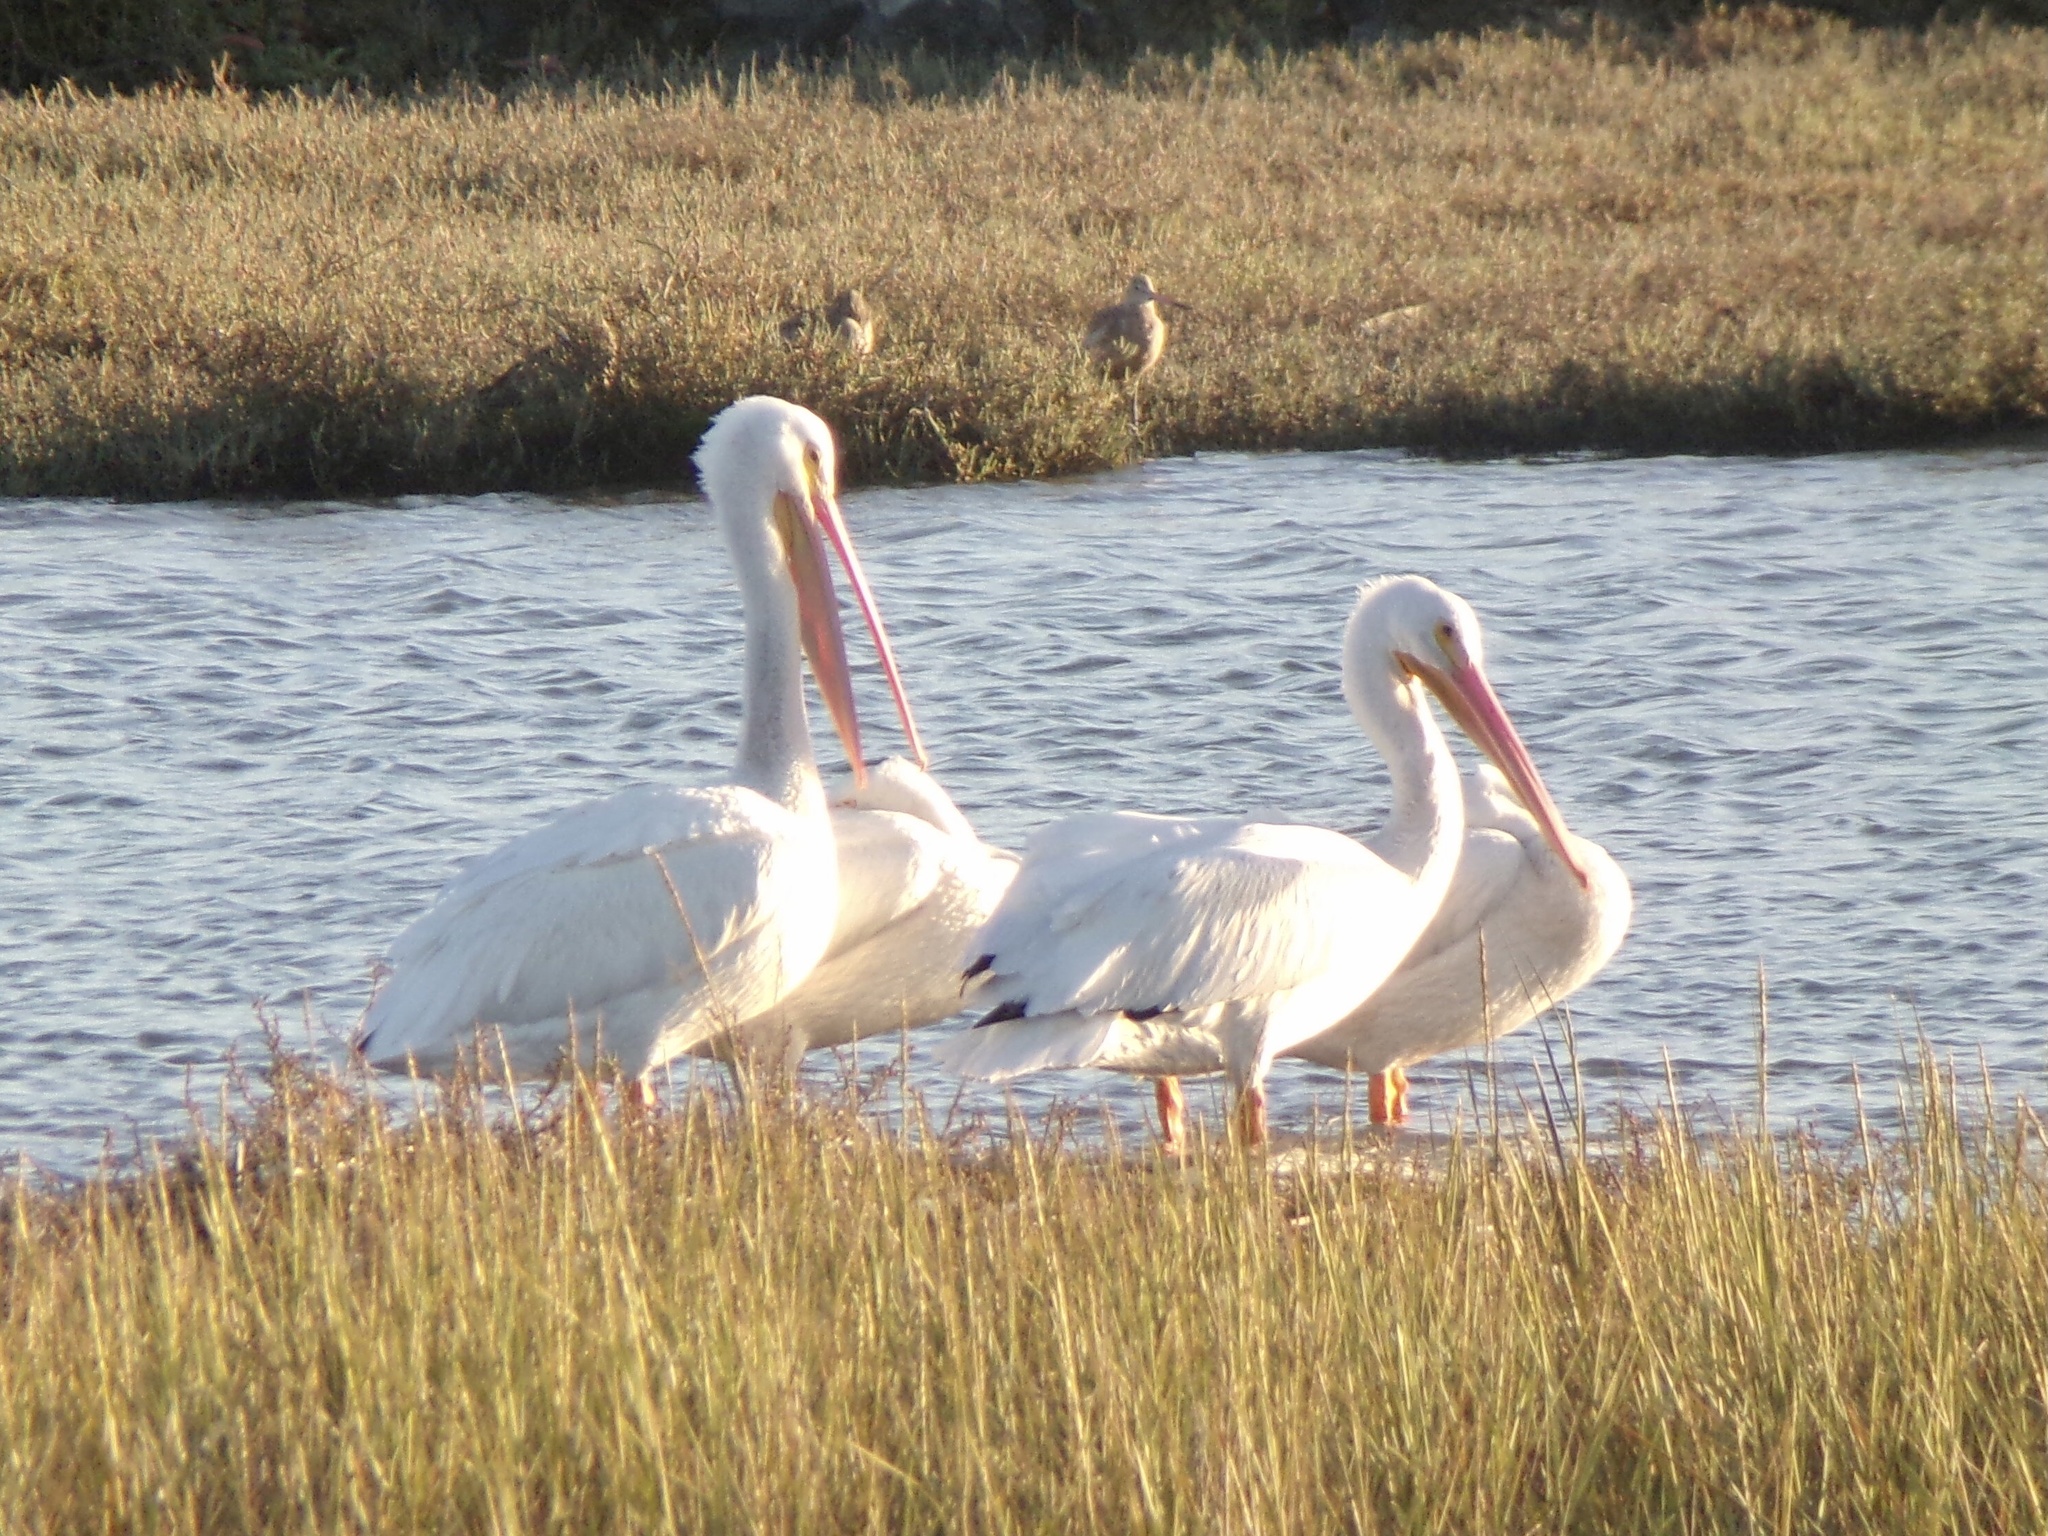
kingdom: Animalia
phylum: Chordata
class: Aves
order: Pelecaniformes
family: Pelecanidae
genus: Pelecanus
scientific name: Pelecanus erythrorhynchos
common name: American white pelican
